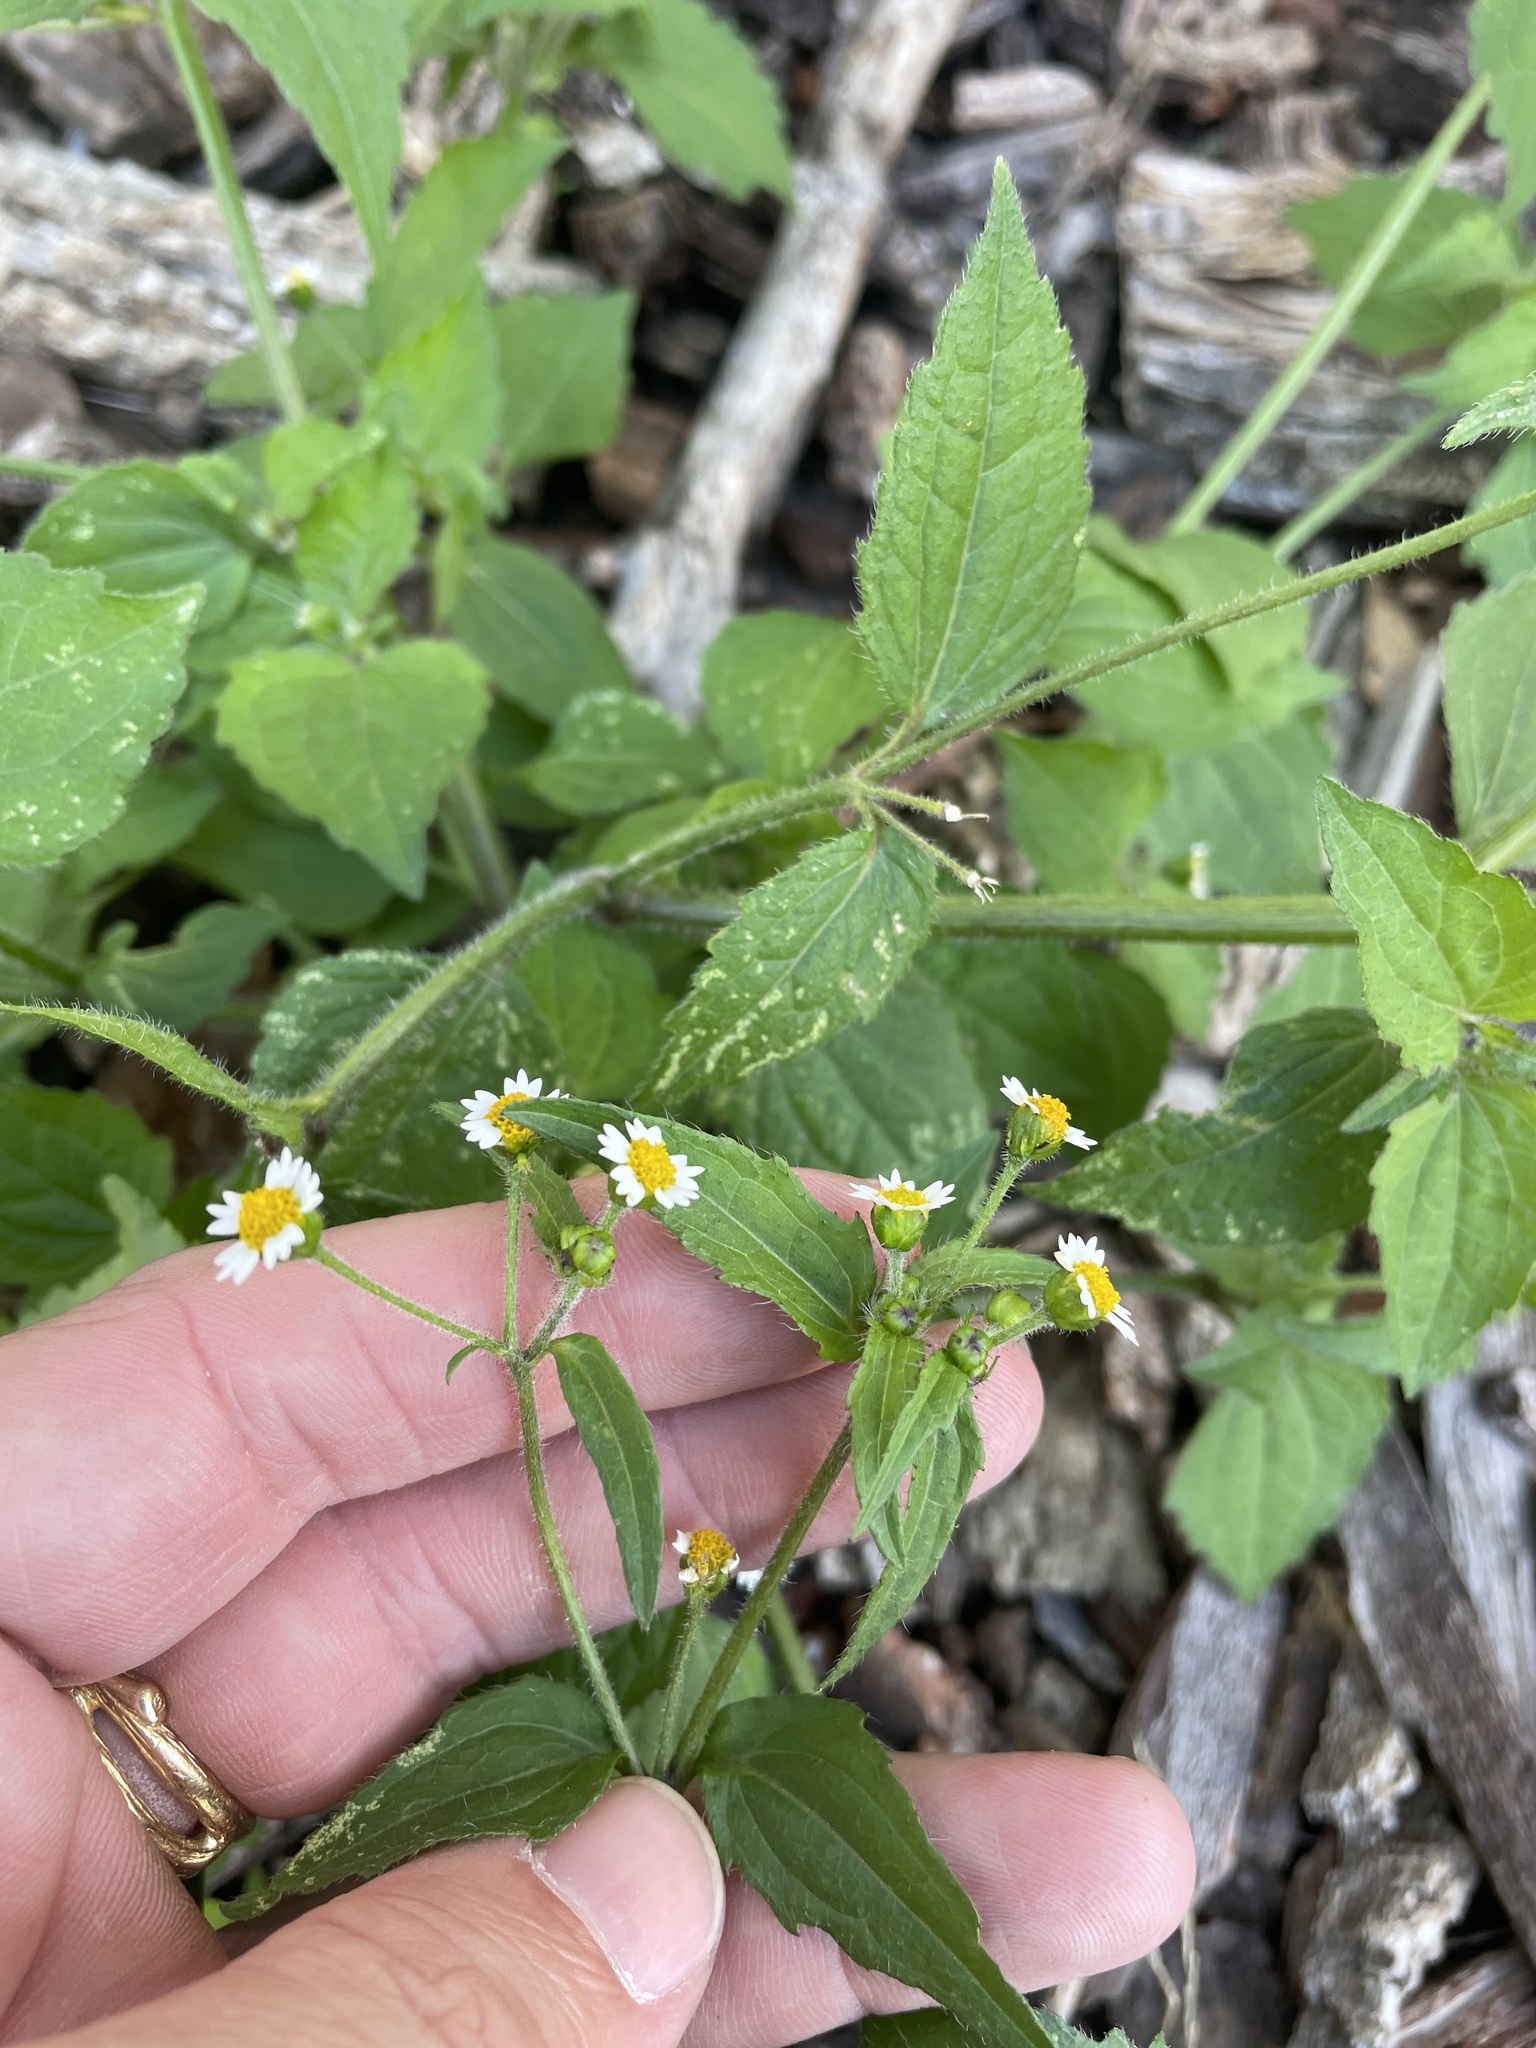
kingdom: Plantae
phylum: Tracheophyta
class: Magnoliopsida
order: Asterales
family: Asteraceae
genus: Galinsoga
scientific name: Galinsoga quadriradiata
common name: Shaggy soldier
